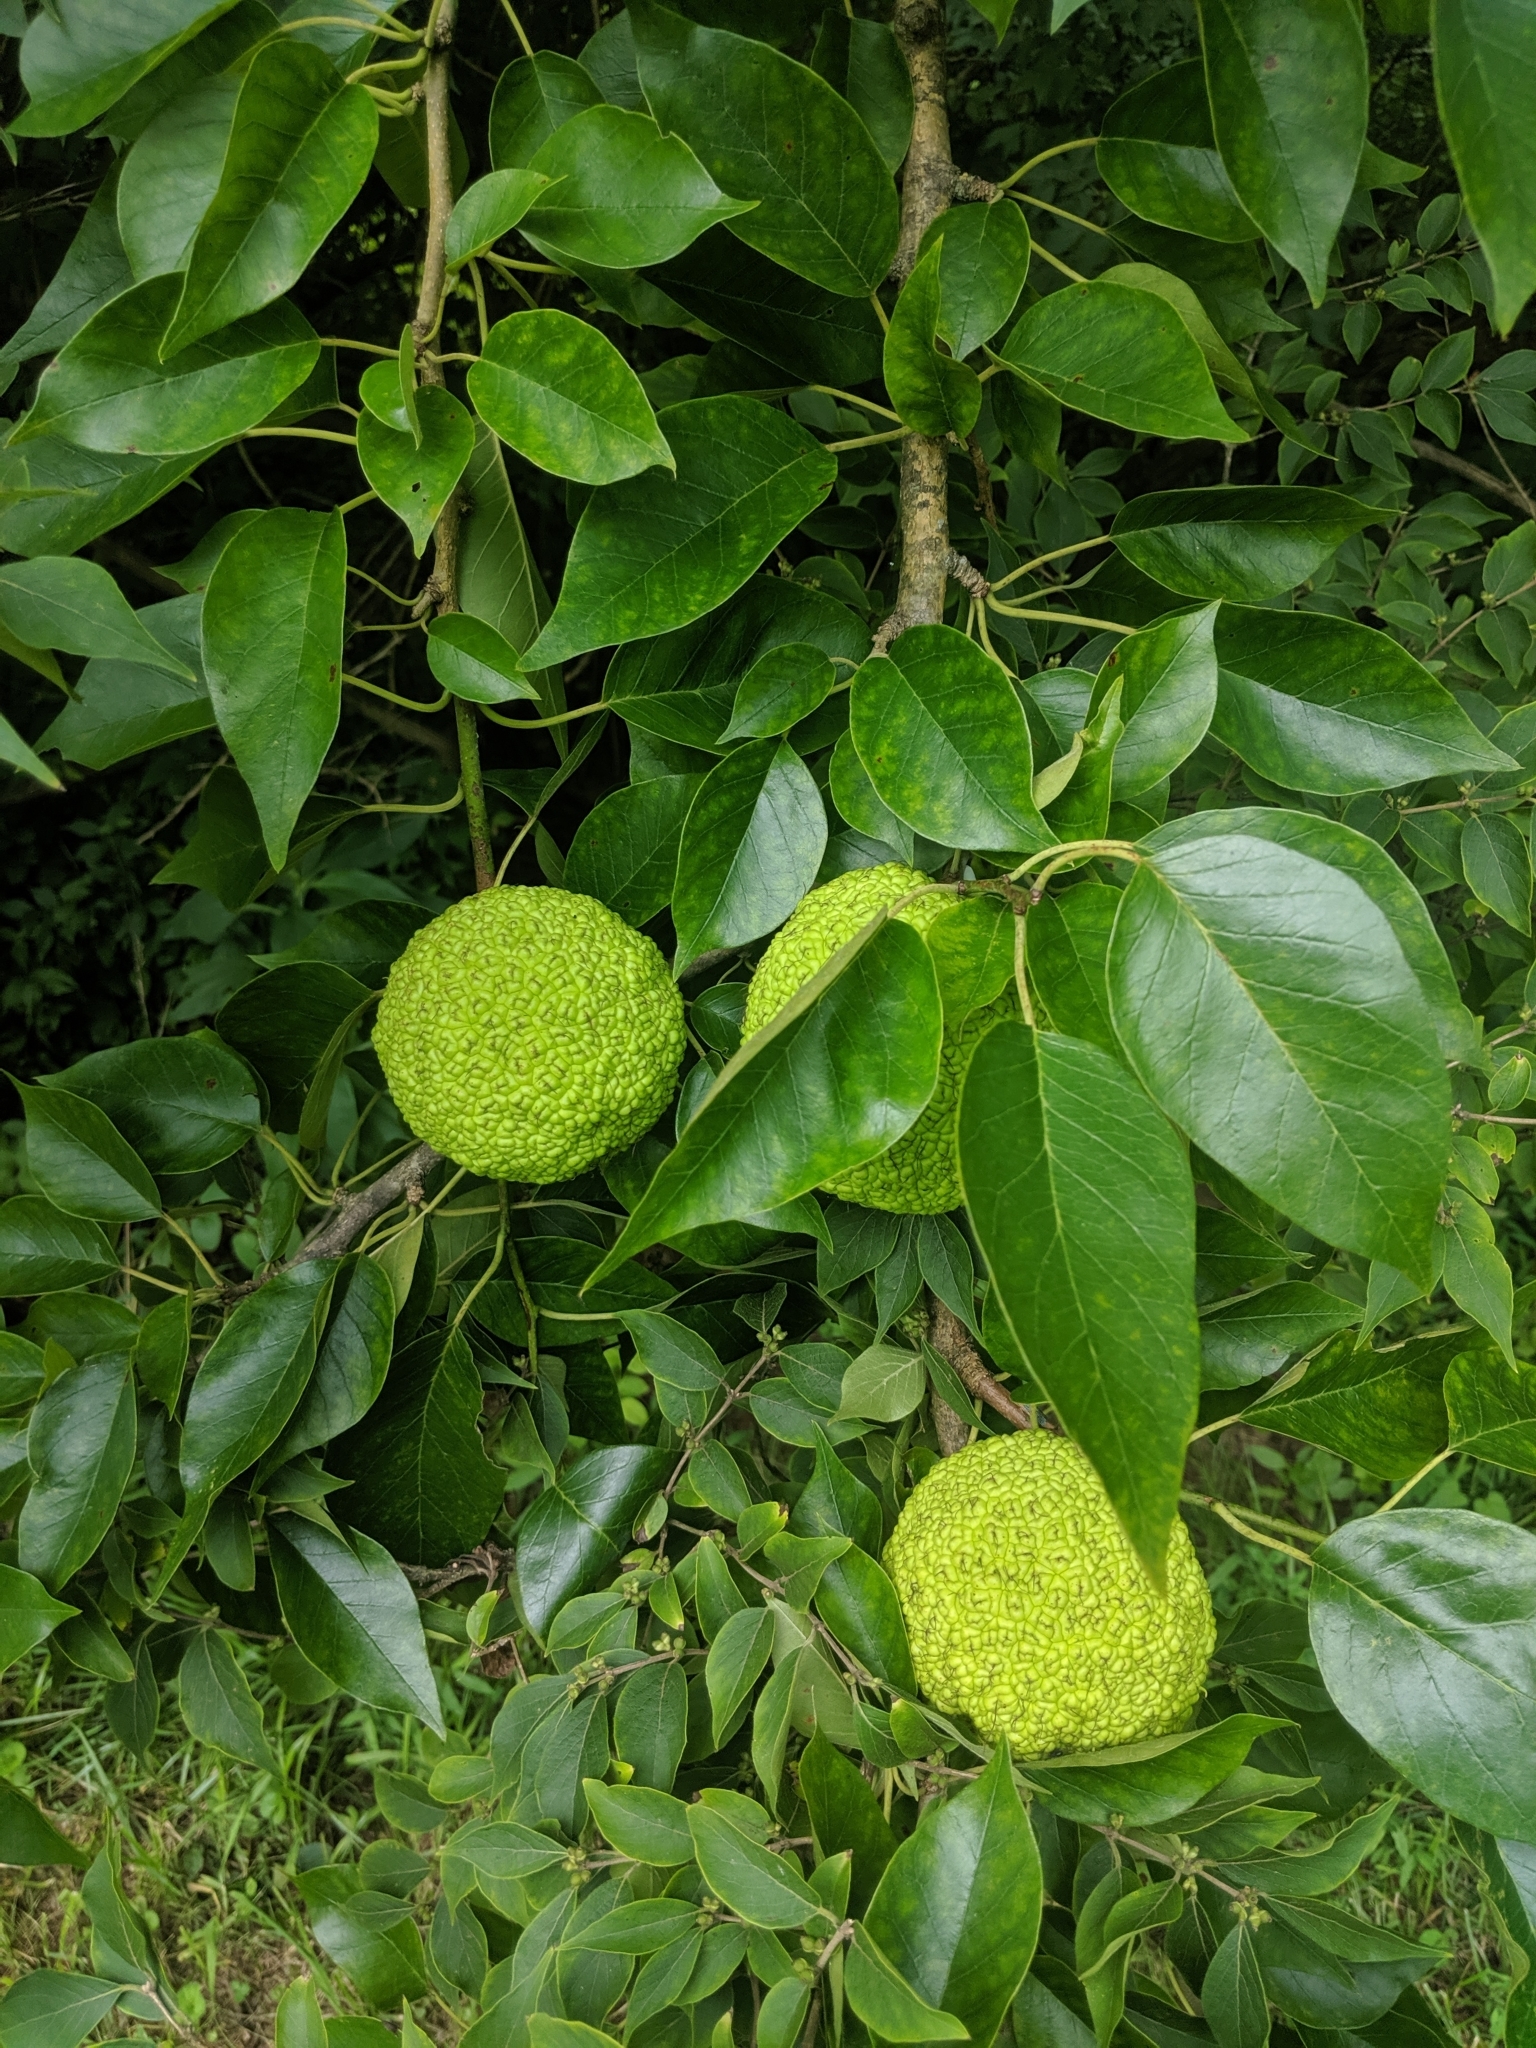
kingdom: Plantae
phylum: Tracheophyta
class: Magnoliopsida
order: Rosales
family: Moraceae
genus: Maclura
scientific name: Maclura pomifera
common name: Osage-orange
